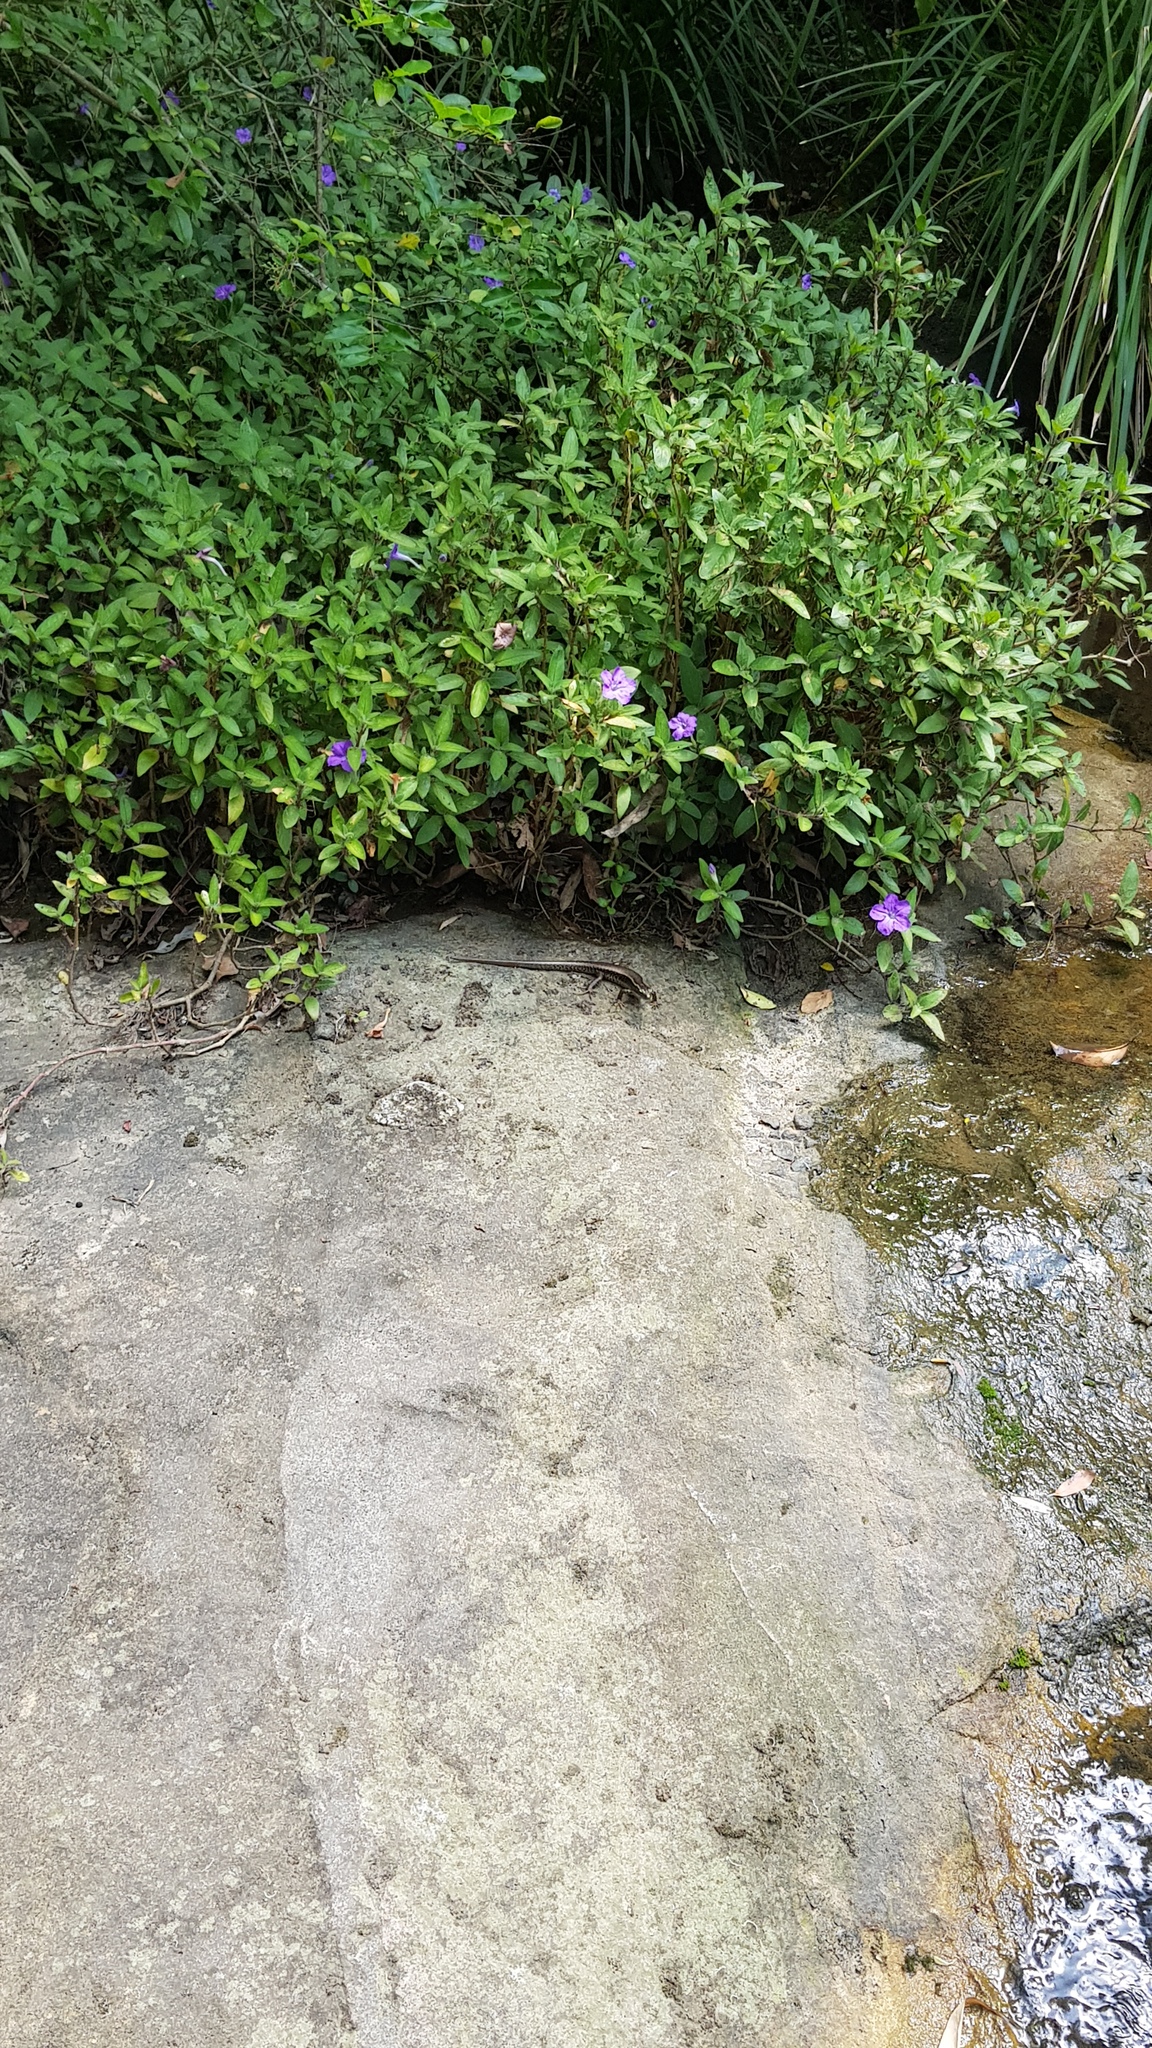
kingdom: Animalia
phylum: Chordata
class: Squamata
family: Scincidae
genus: Eulamprus
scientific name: Eulamprus quoyii
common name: Eastern water skink
